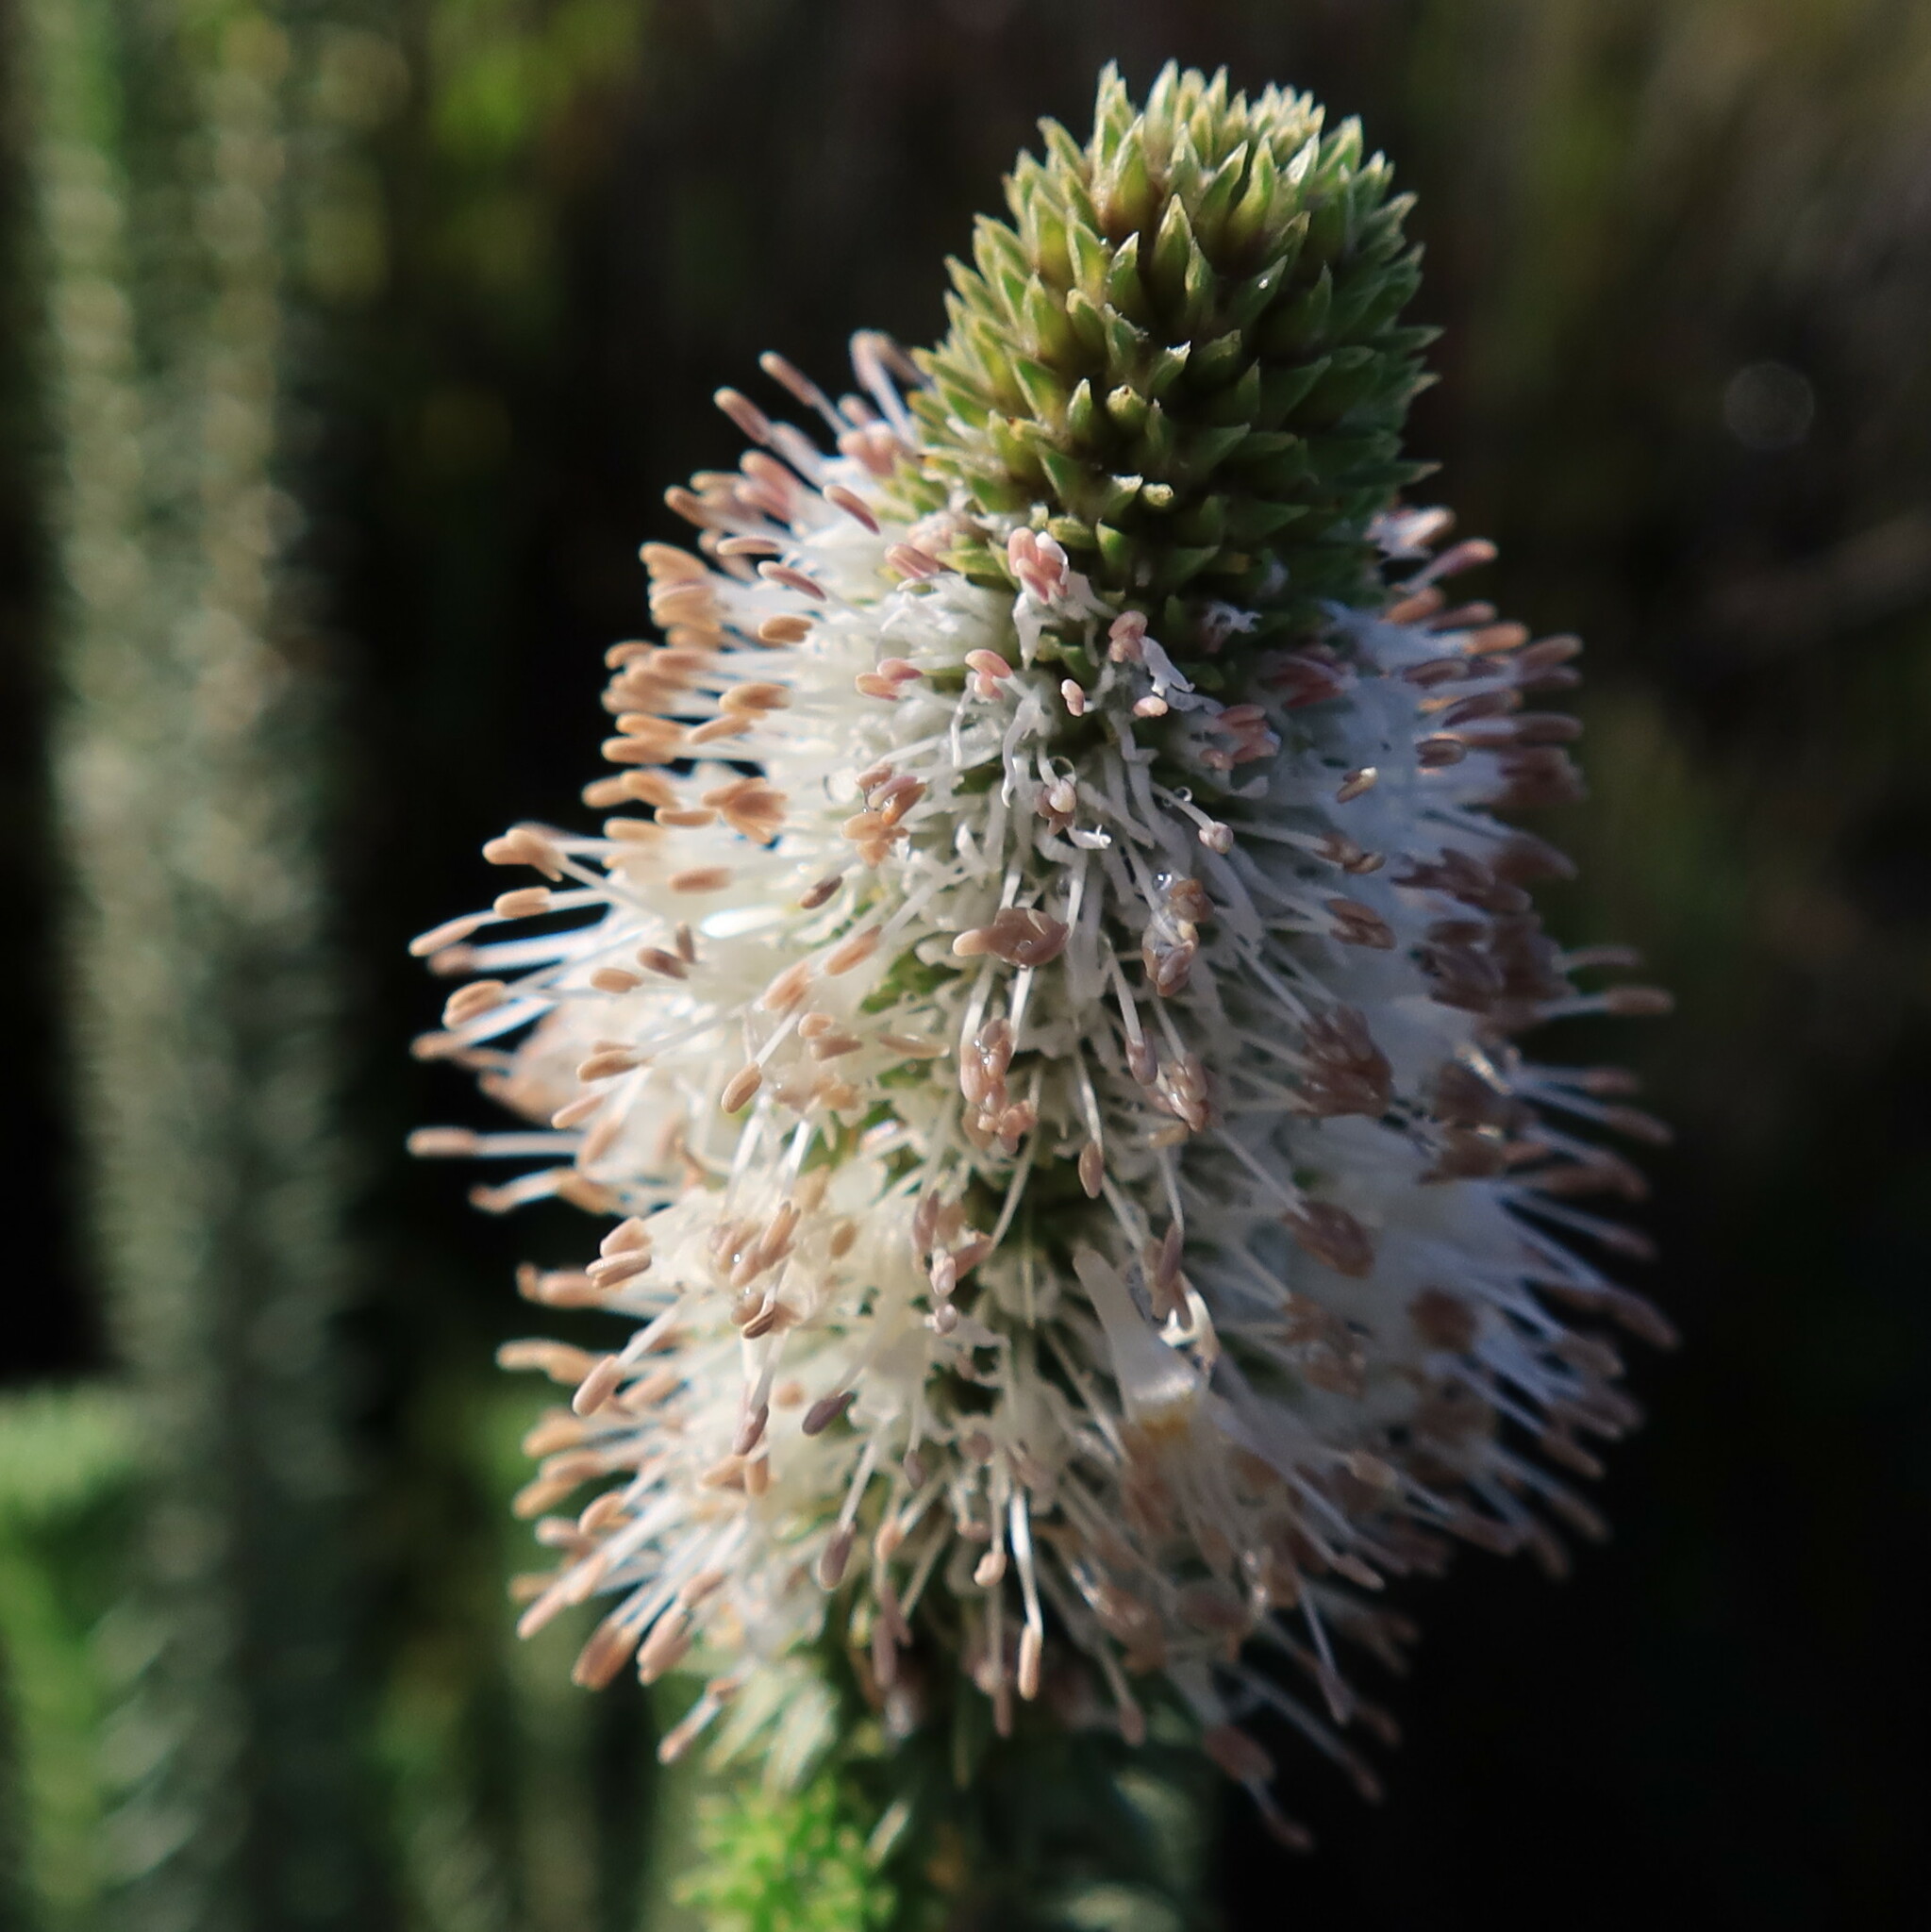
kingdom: Plantae
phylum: Tracheophyta
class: Magnoliopsida
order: Lamiales
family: Stilbaceae
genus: Stilbe
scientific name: Stilbe vestita
